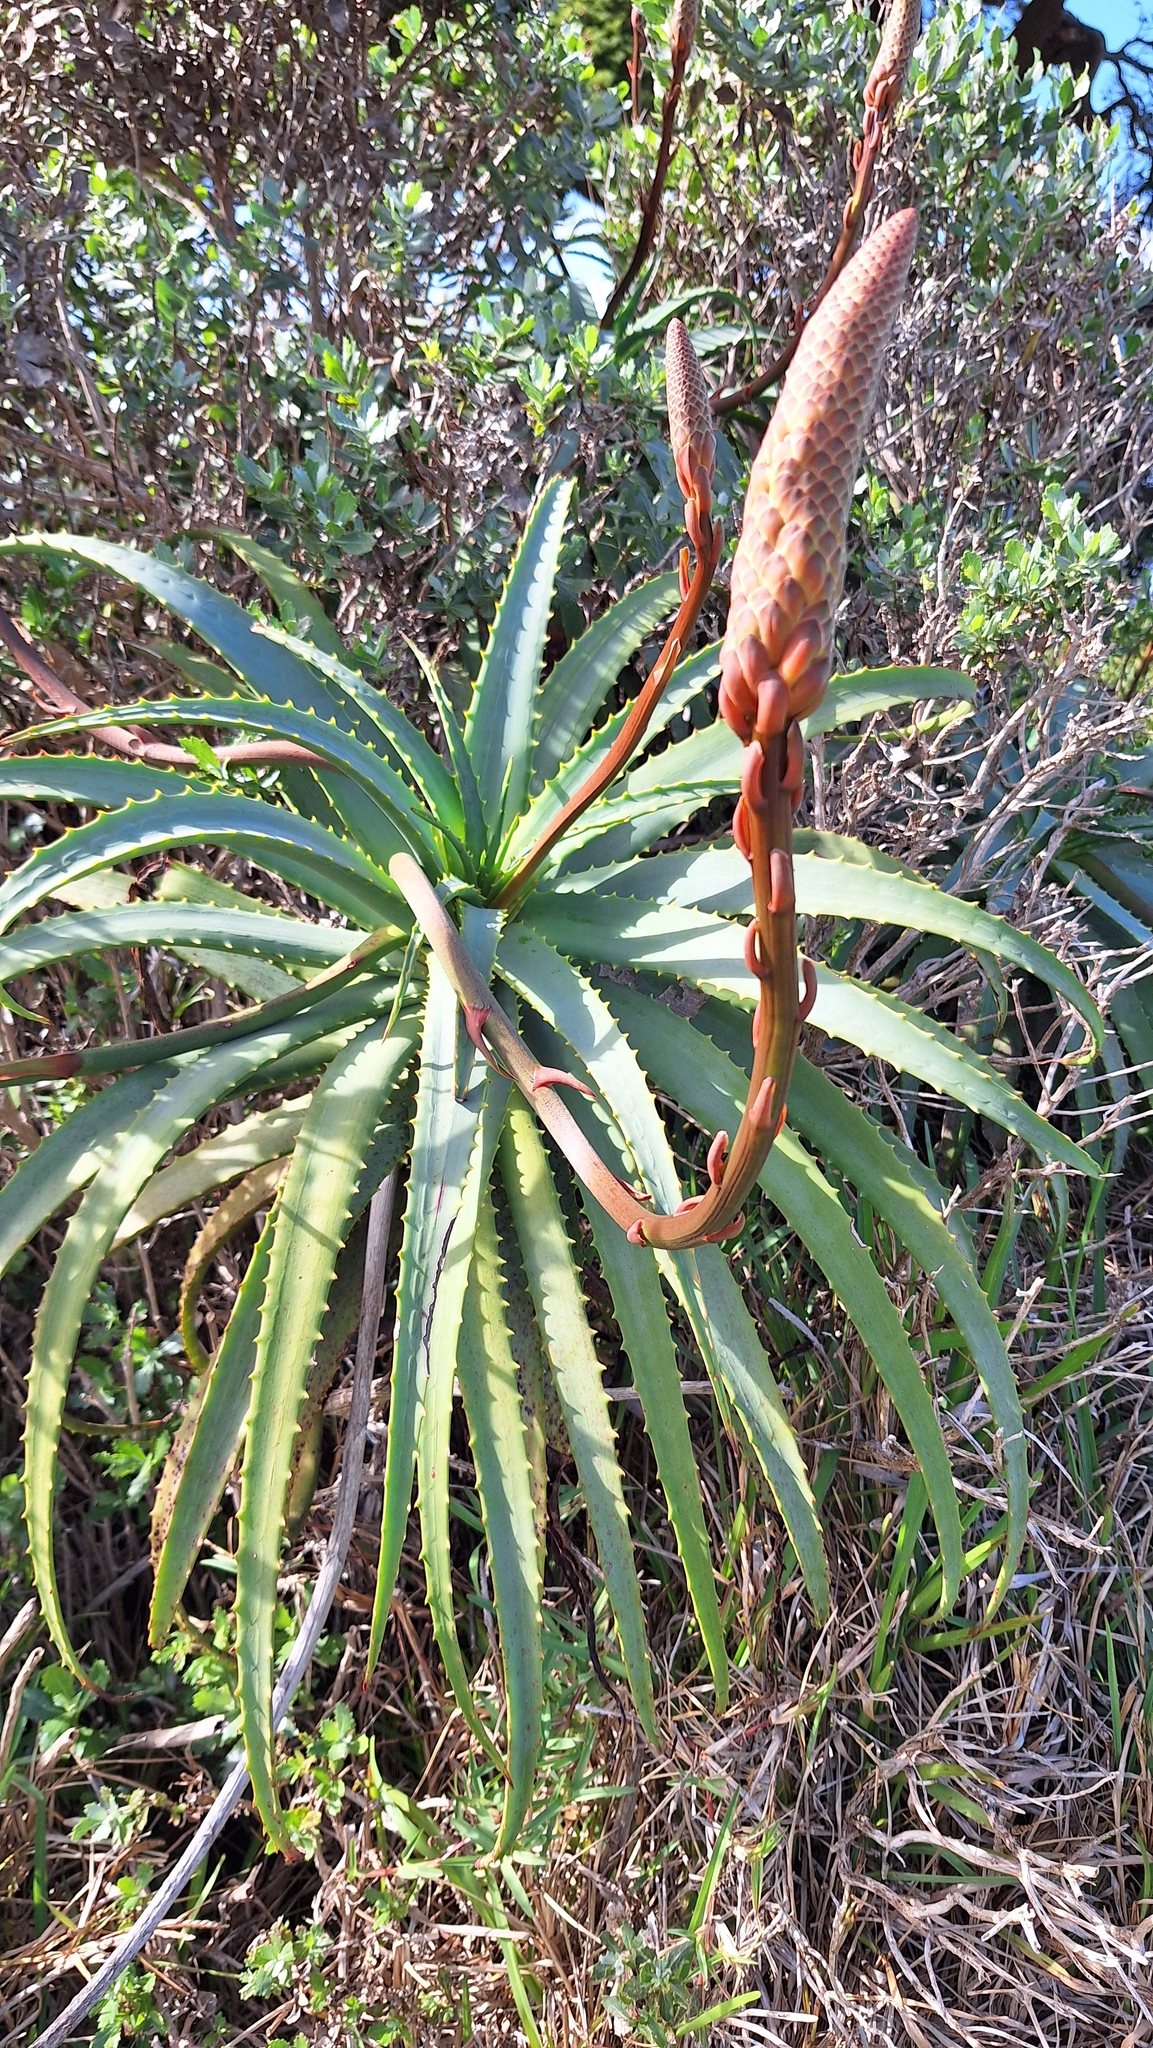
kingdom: Plantae
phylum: Tracheophyta
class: Liliopsida
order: Asparagales
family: Asphodelaceae
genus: Aloe
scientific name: Aloe arborescens
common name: Candelabra aloe
